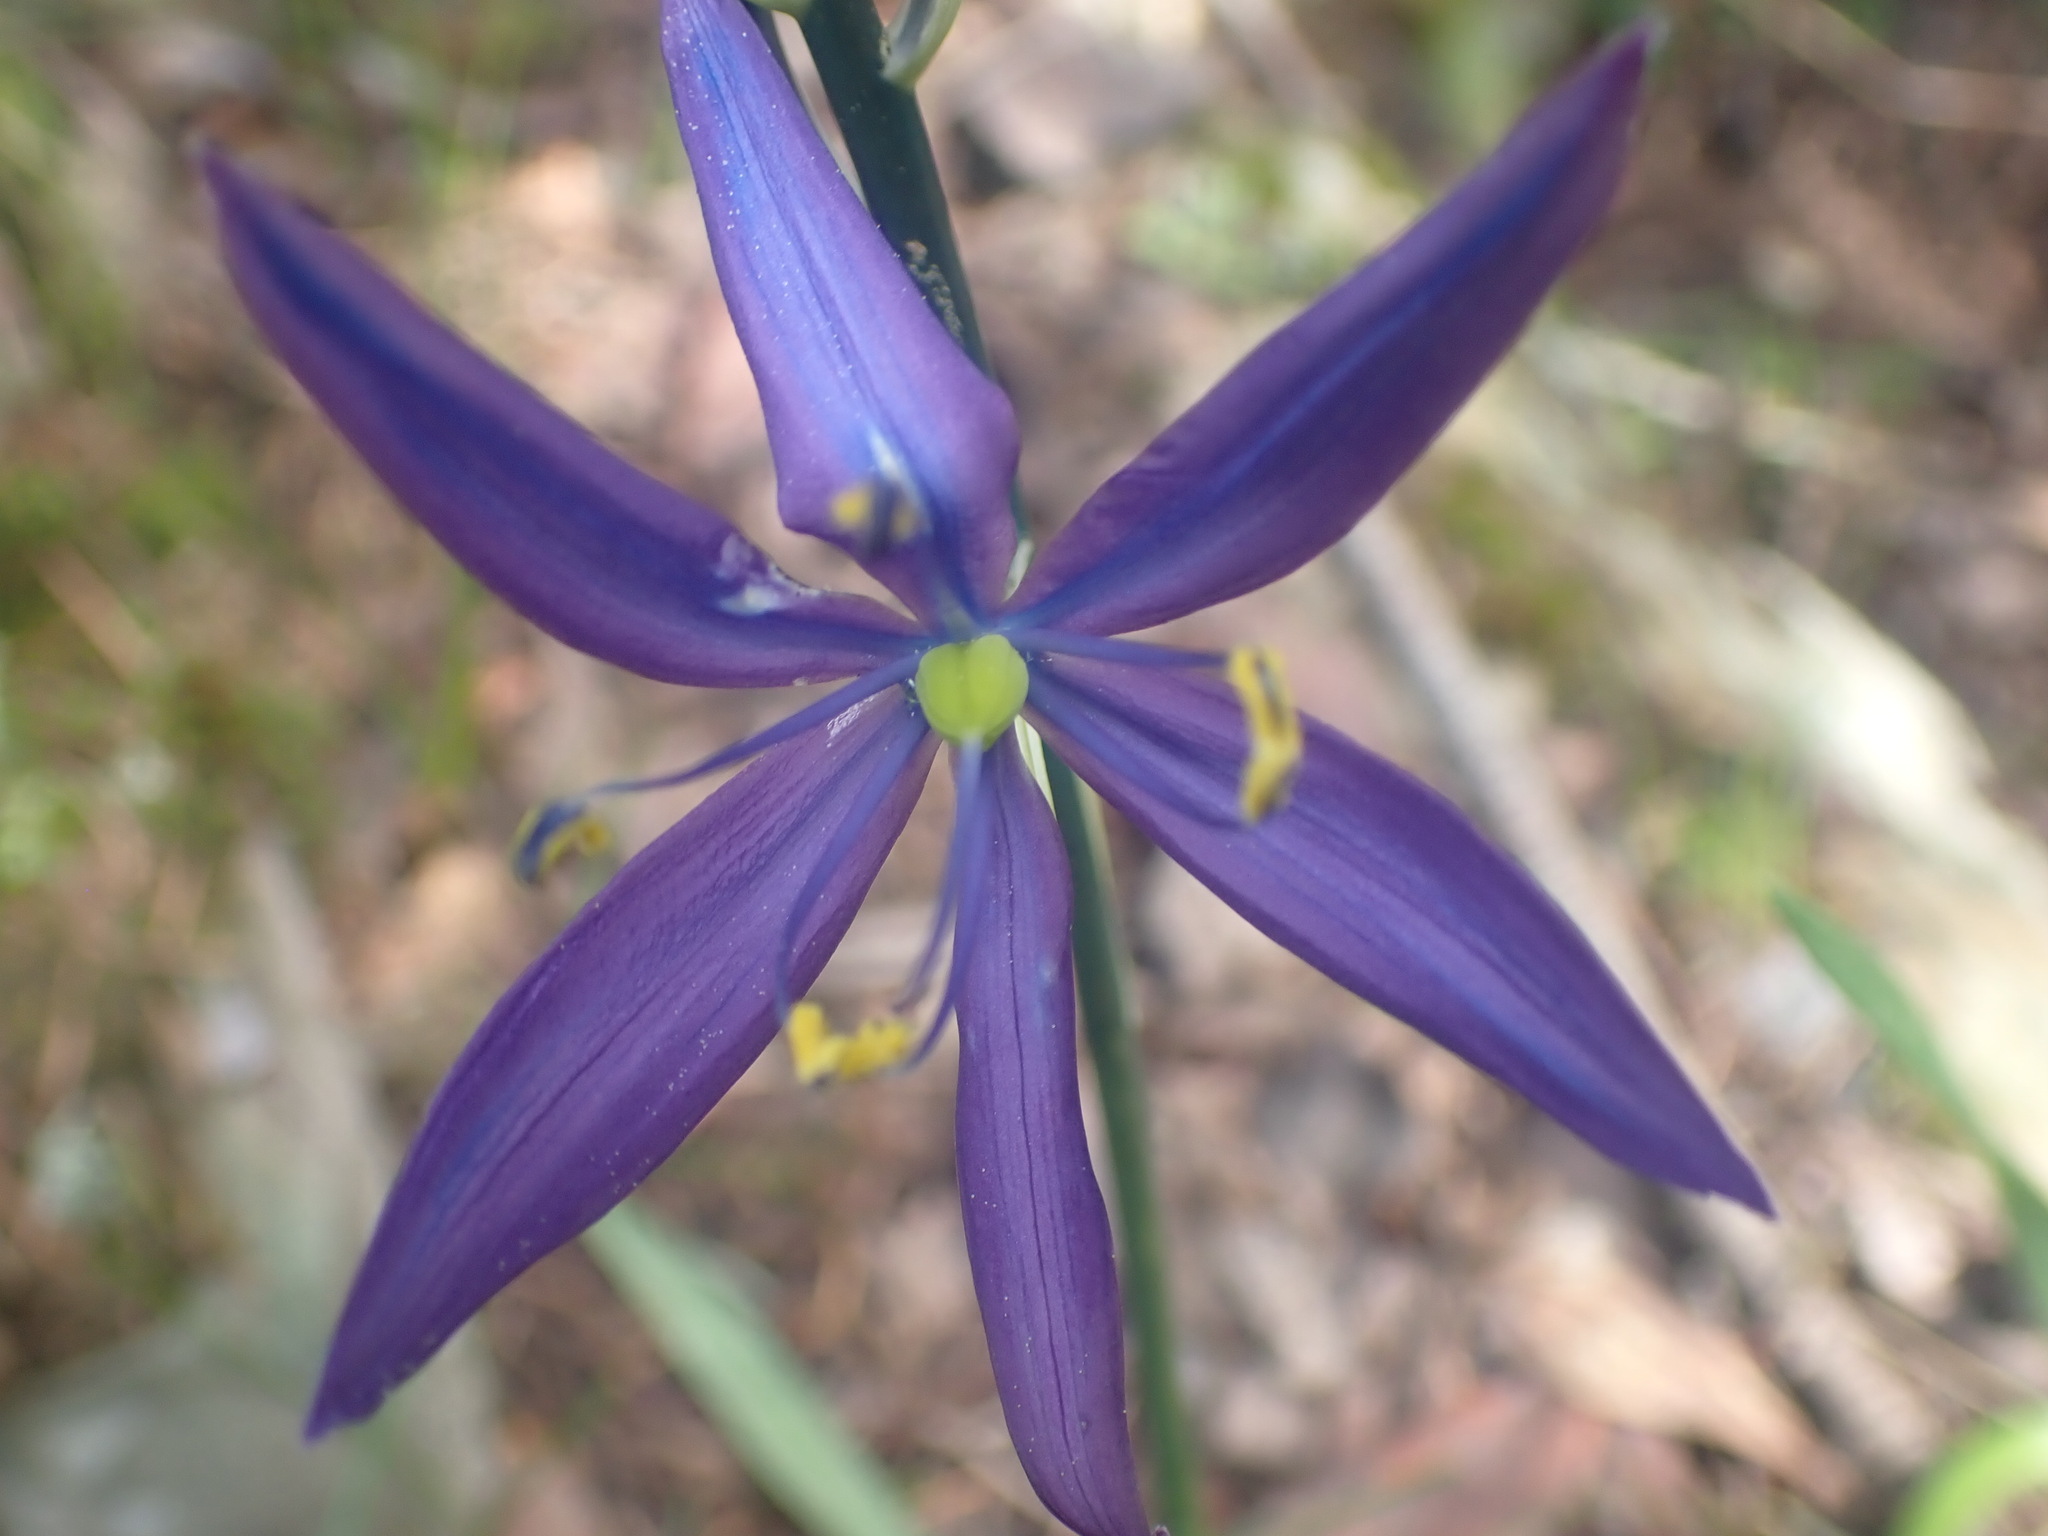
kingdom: Plantae
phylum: Tracheophyta
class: Liliopsida
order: Asparagales
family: Asparagaceae
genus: Camassia
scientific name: Camassia leichtlinii
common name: Leichtlin's camas
